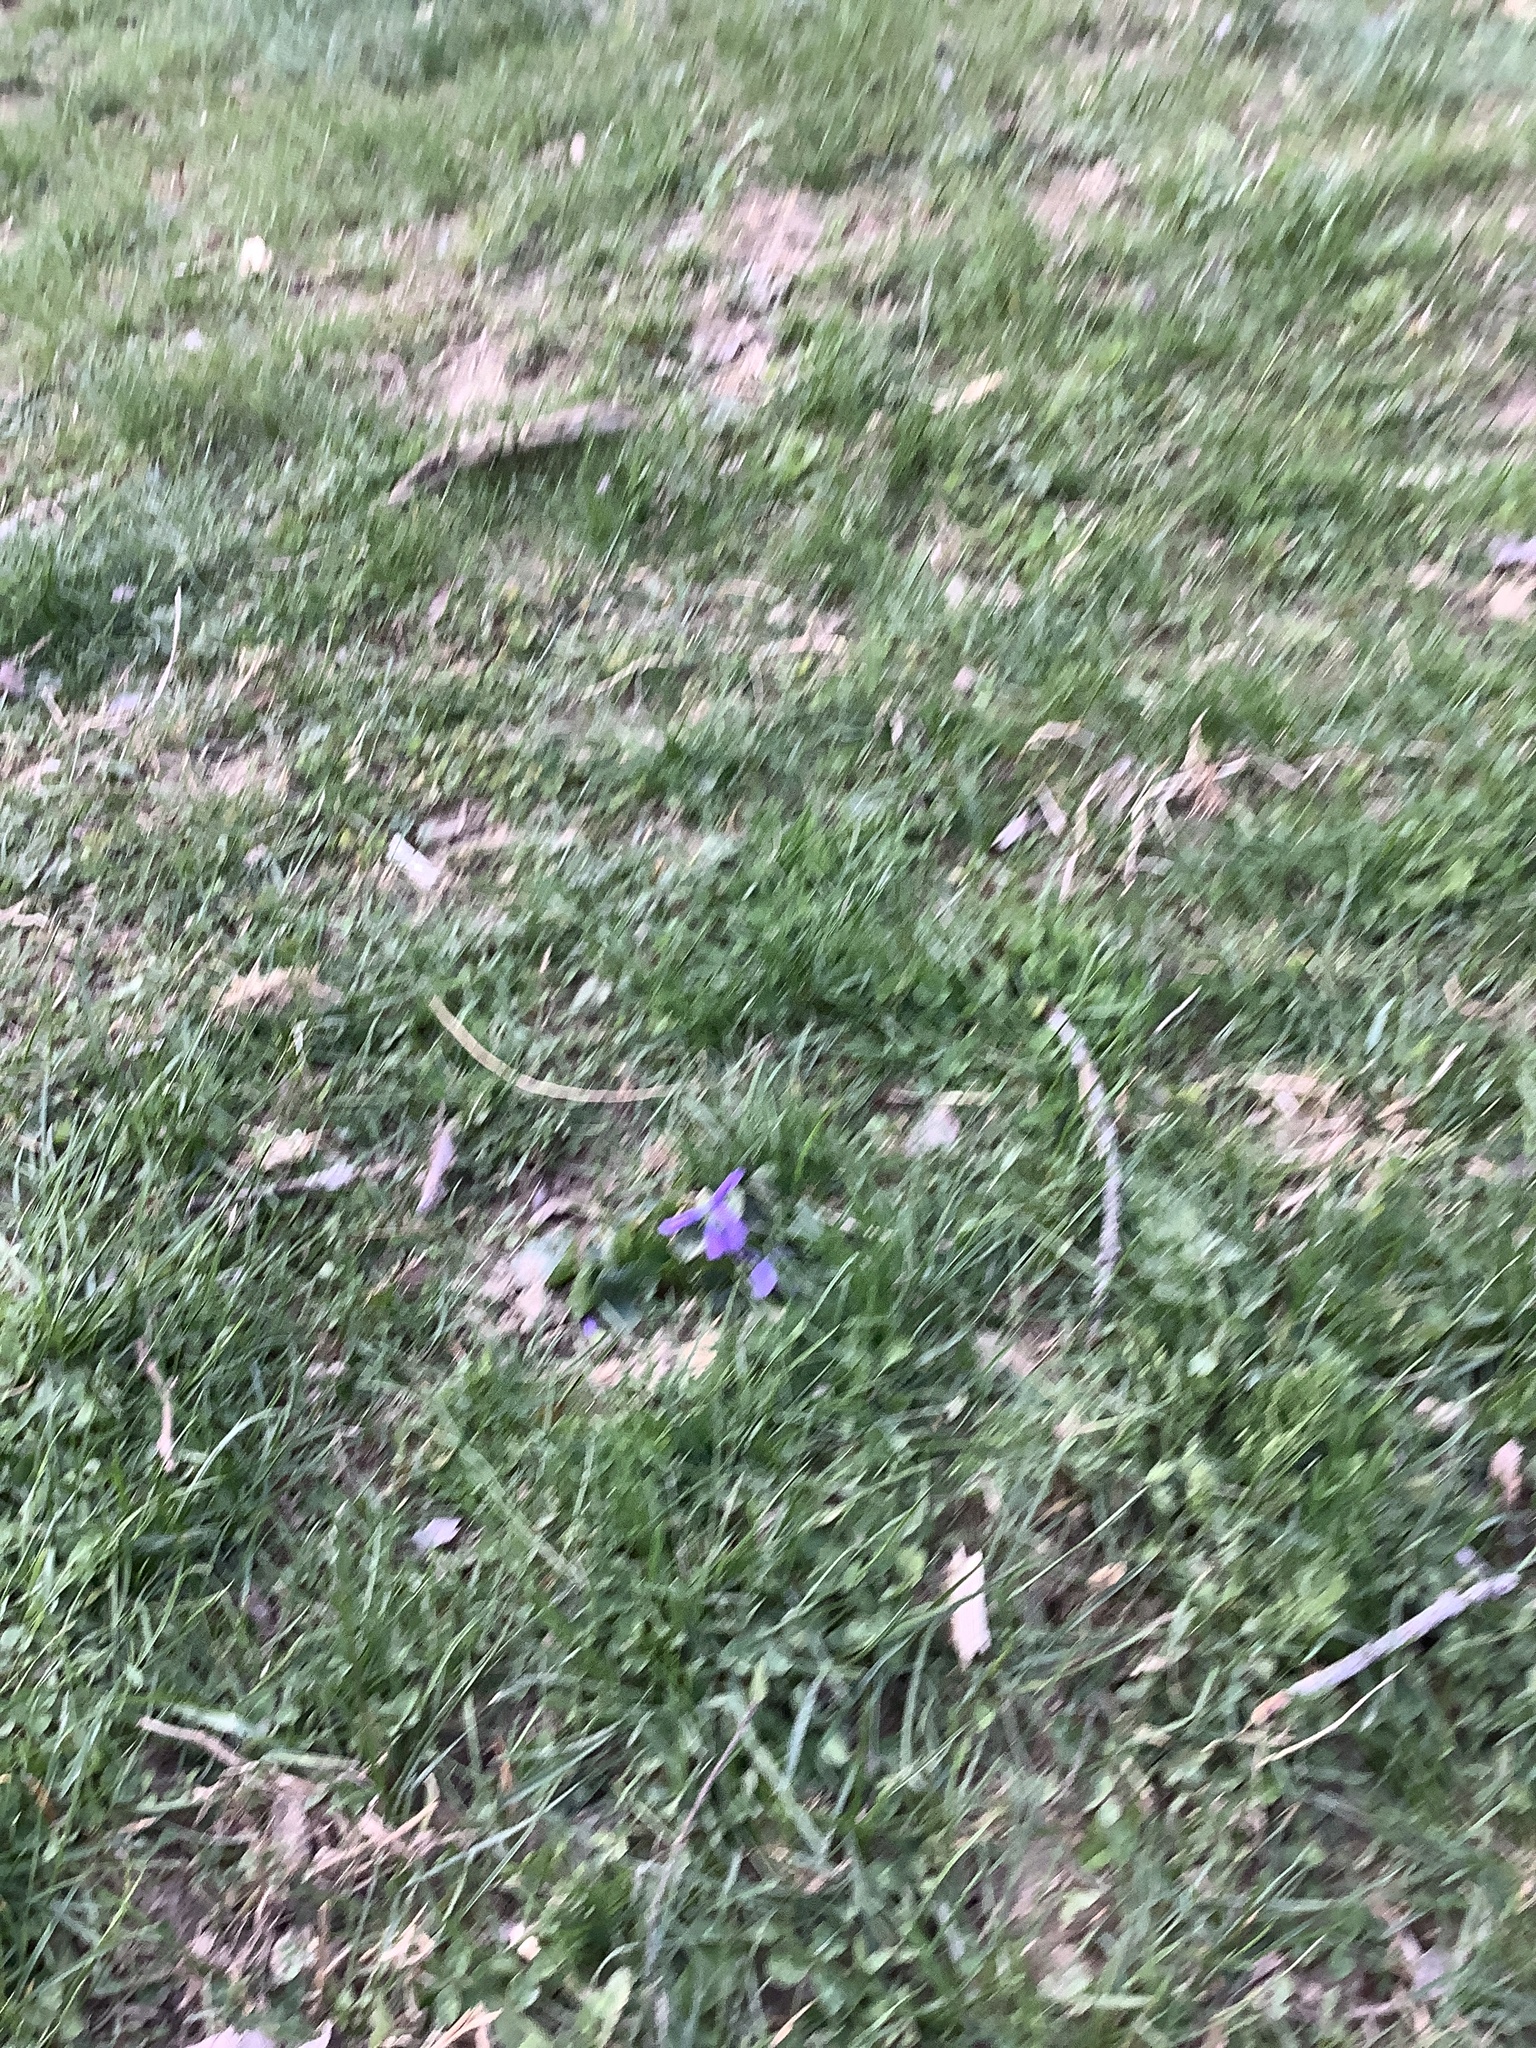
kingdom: Plantae
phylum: Tracheophyta
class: Magnoliopsida
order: Malpighiales
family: Violaceae
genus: Viola
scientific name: Viola sororia
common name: Dooryard violet
